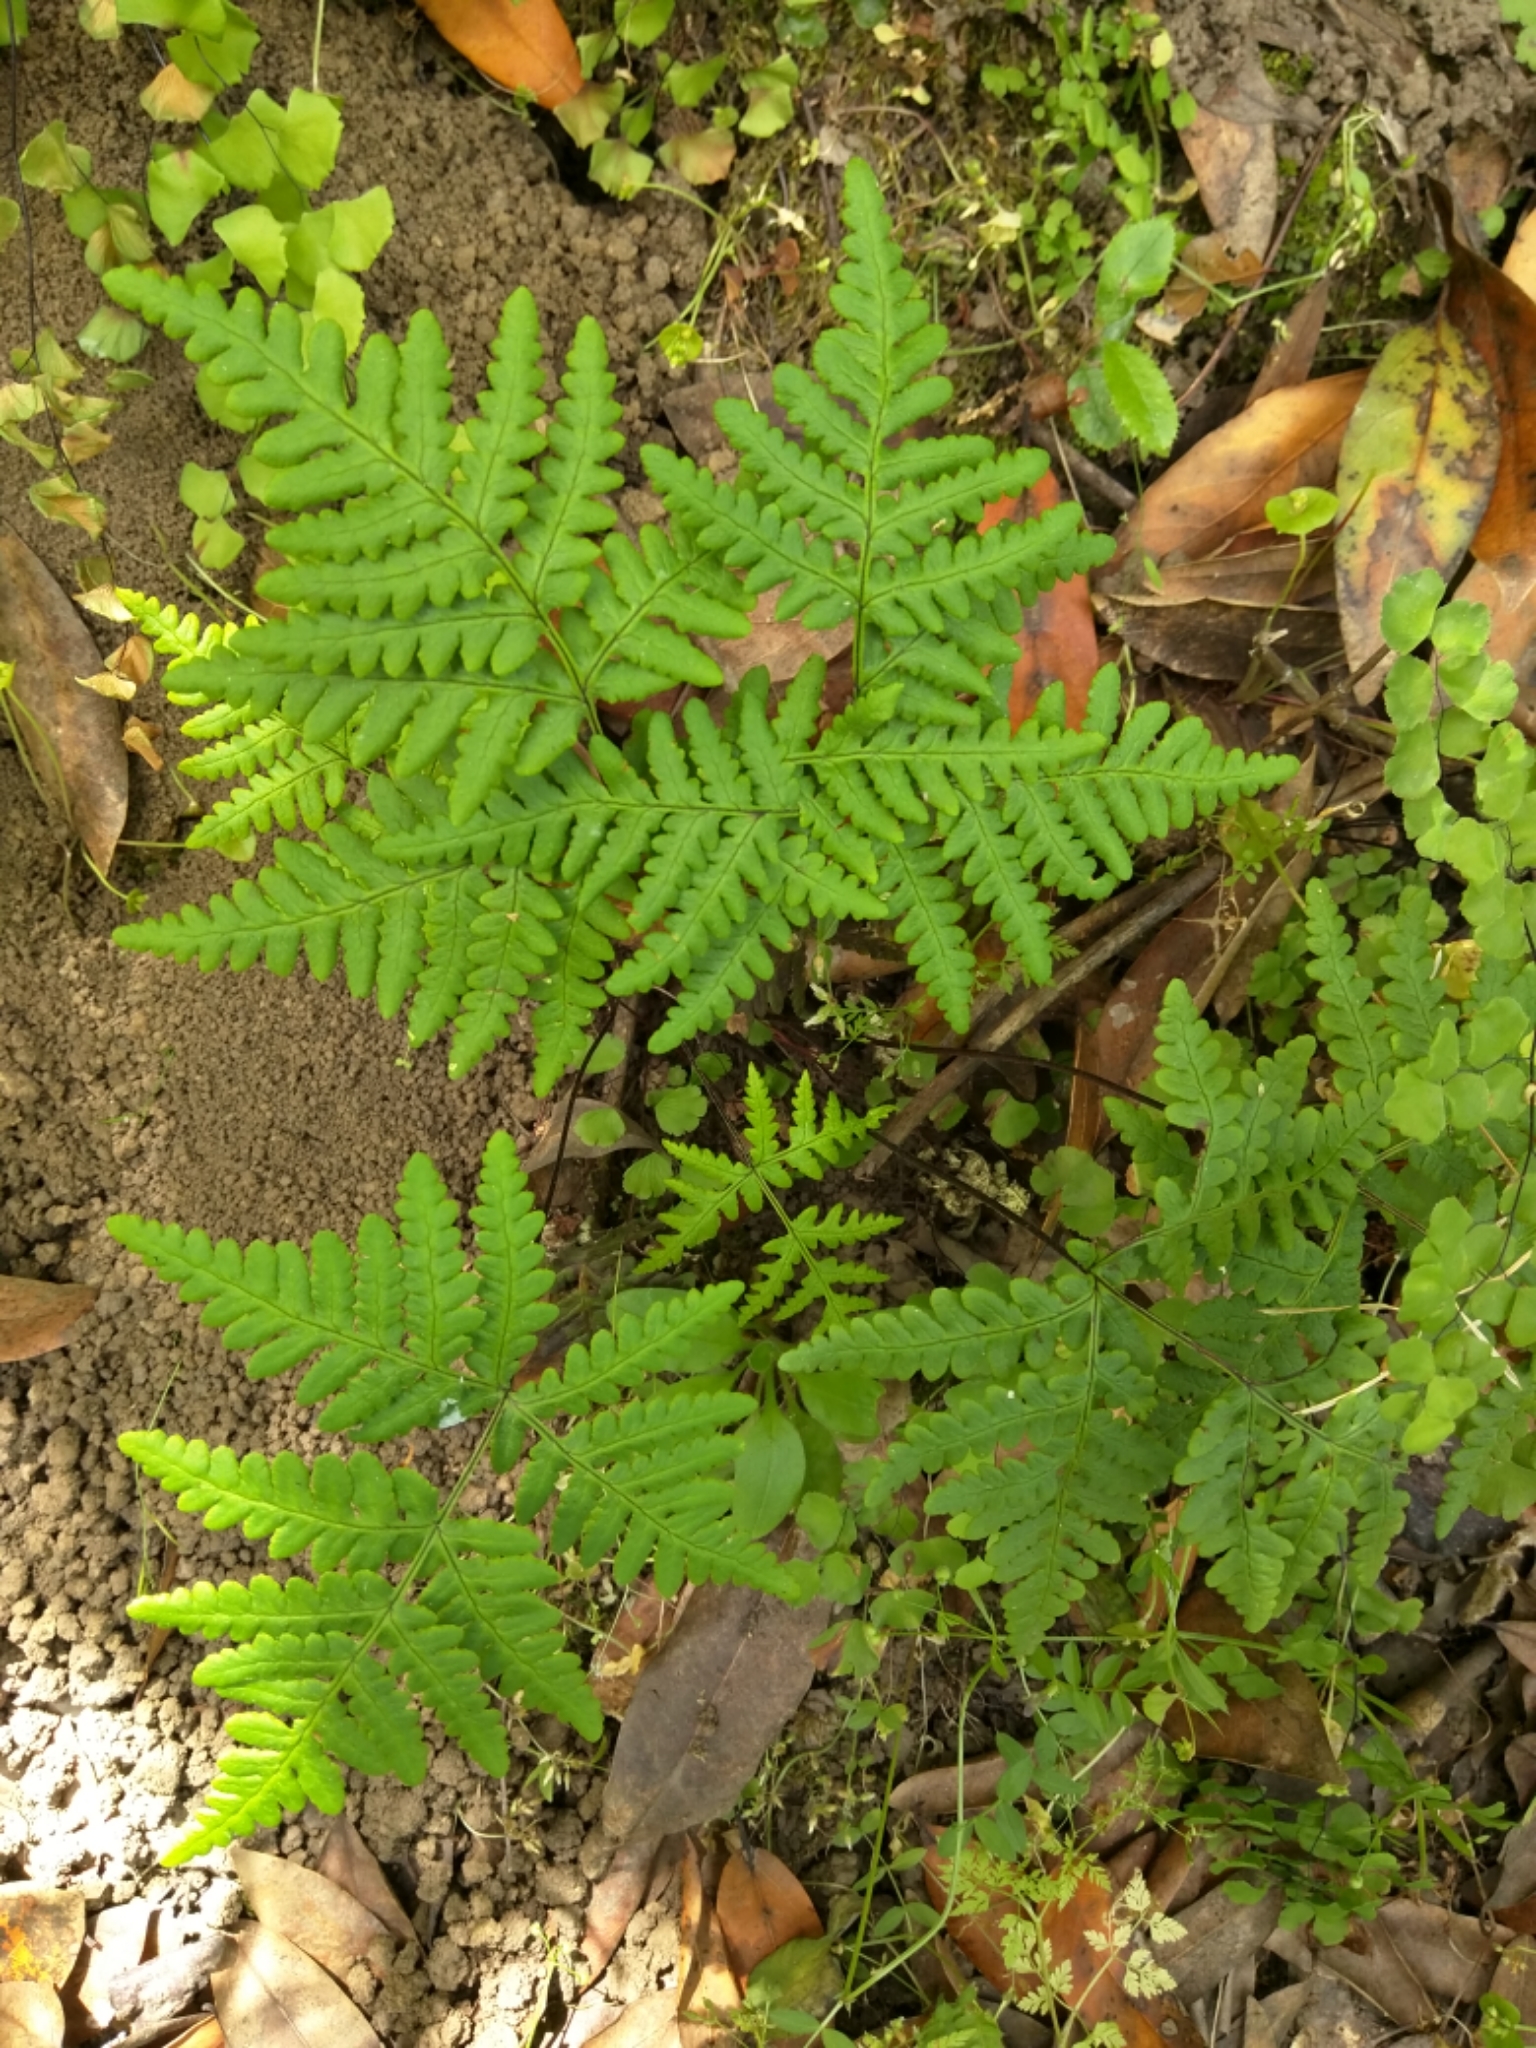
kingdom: Plantae
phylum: Tracheophyta
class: Polypodiopsida
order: Polypodiales
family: Pteridaceae
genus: Pentagramma
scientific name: Pentagramma triangularis
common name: Gold fern
